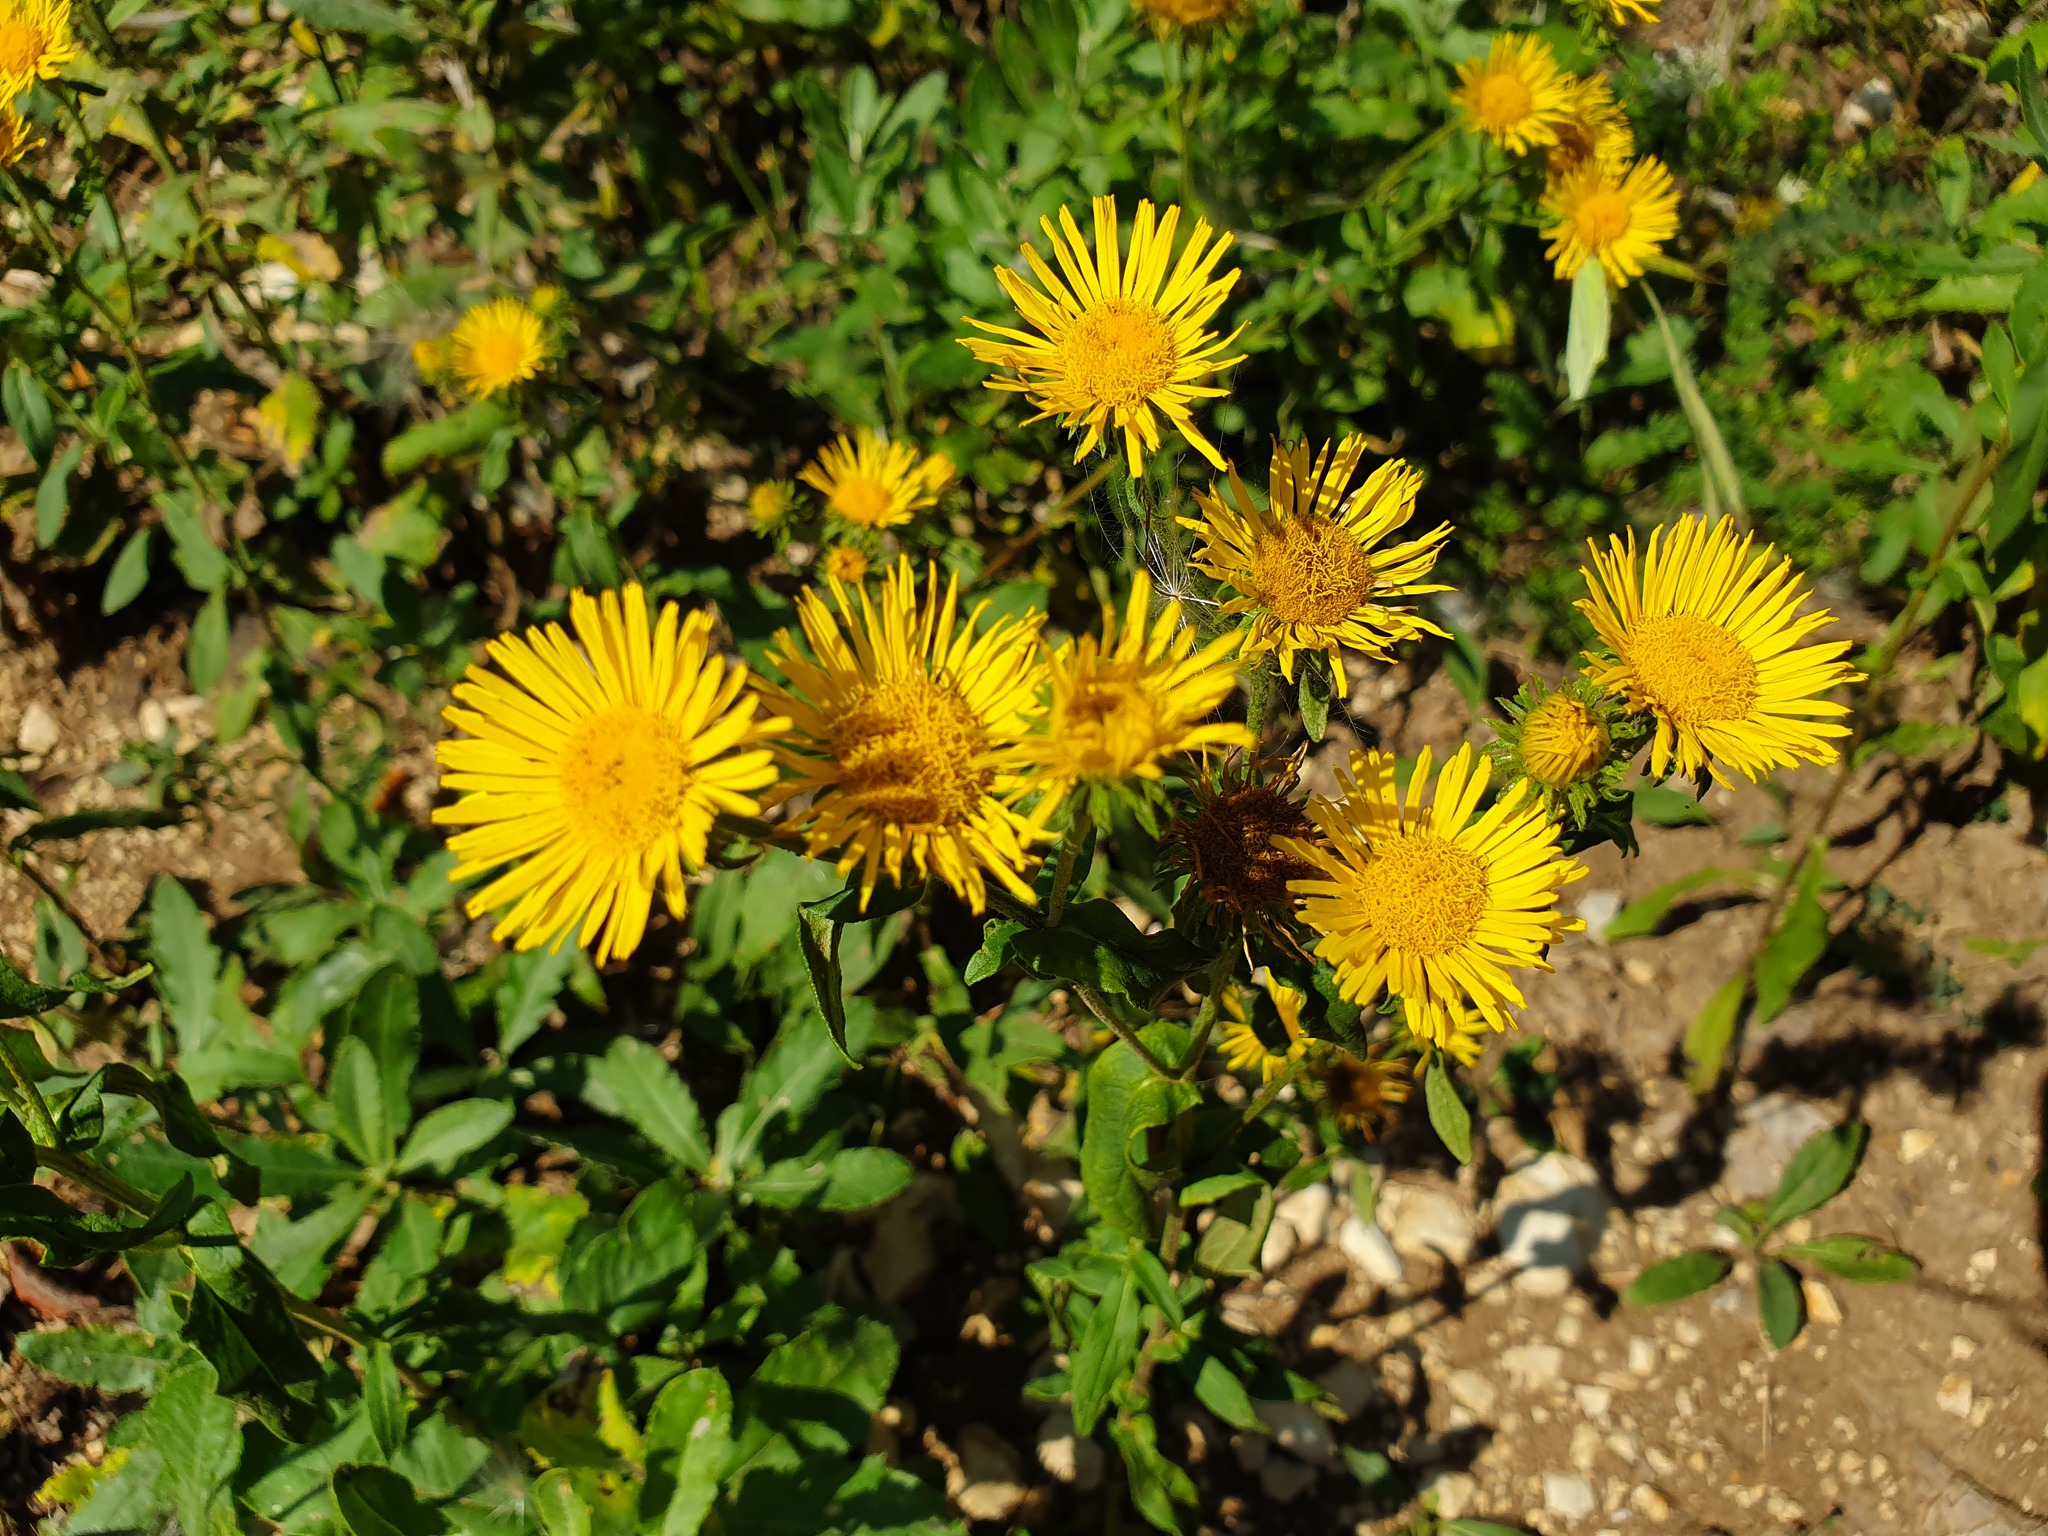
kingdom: Plantae
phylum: Tracheophyta
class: Magnoliopsida
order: Asterales
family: Asteraceae
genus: Pentanema
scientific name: Pentanema britannicum
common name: British elecampane
